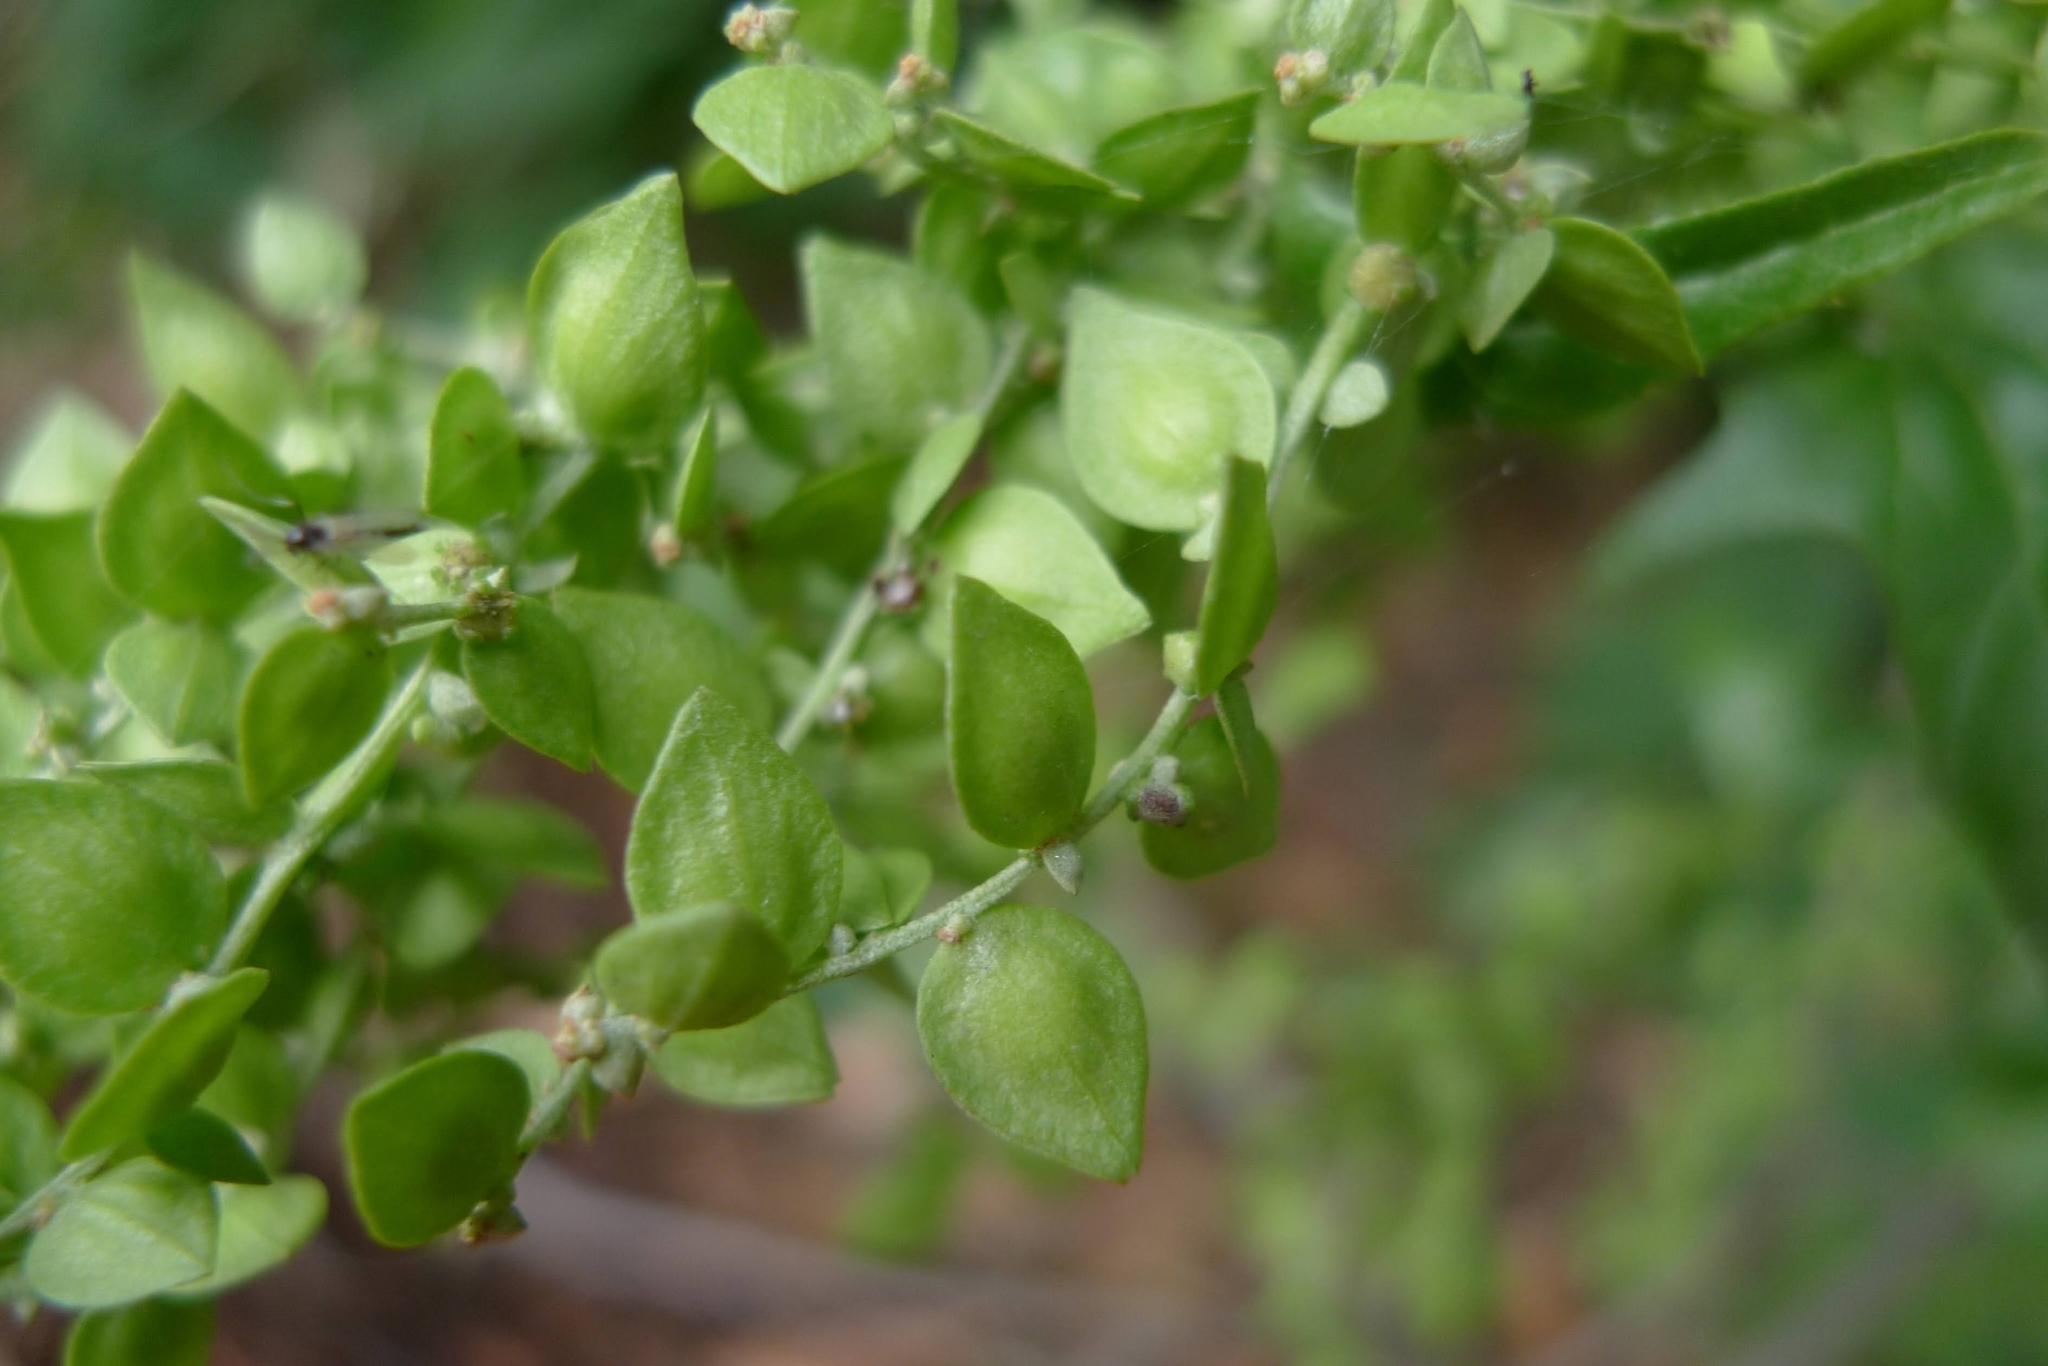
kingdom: Plantae
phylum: Tracheophyta
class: Magnoliopsida
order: Caryophyllales
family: Amaranthaceae
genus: Atriplex
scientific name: Atriplex sagittata
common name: Purple orache
